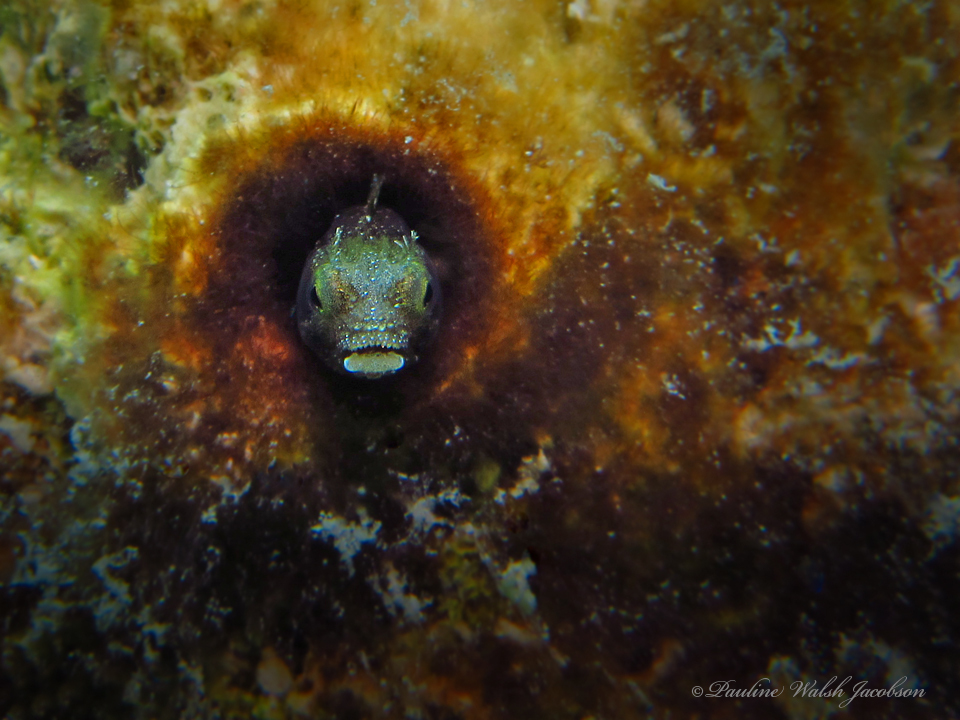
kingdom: Animalia
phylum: Chordata
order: Perciformes
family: Chaenopsidae
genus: Acanthemblemaria
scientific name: Acanthemblemaria spinosa
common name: Spinyhead blenny
